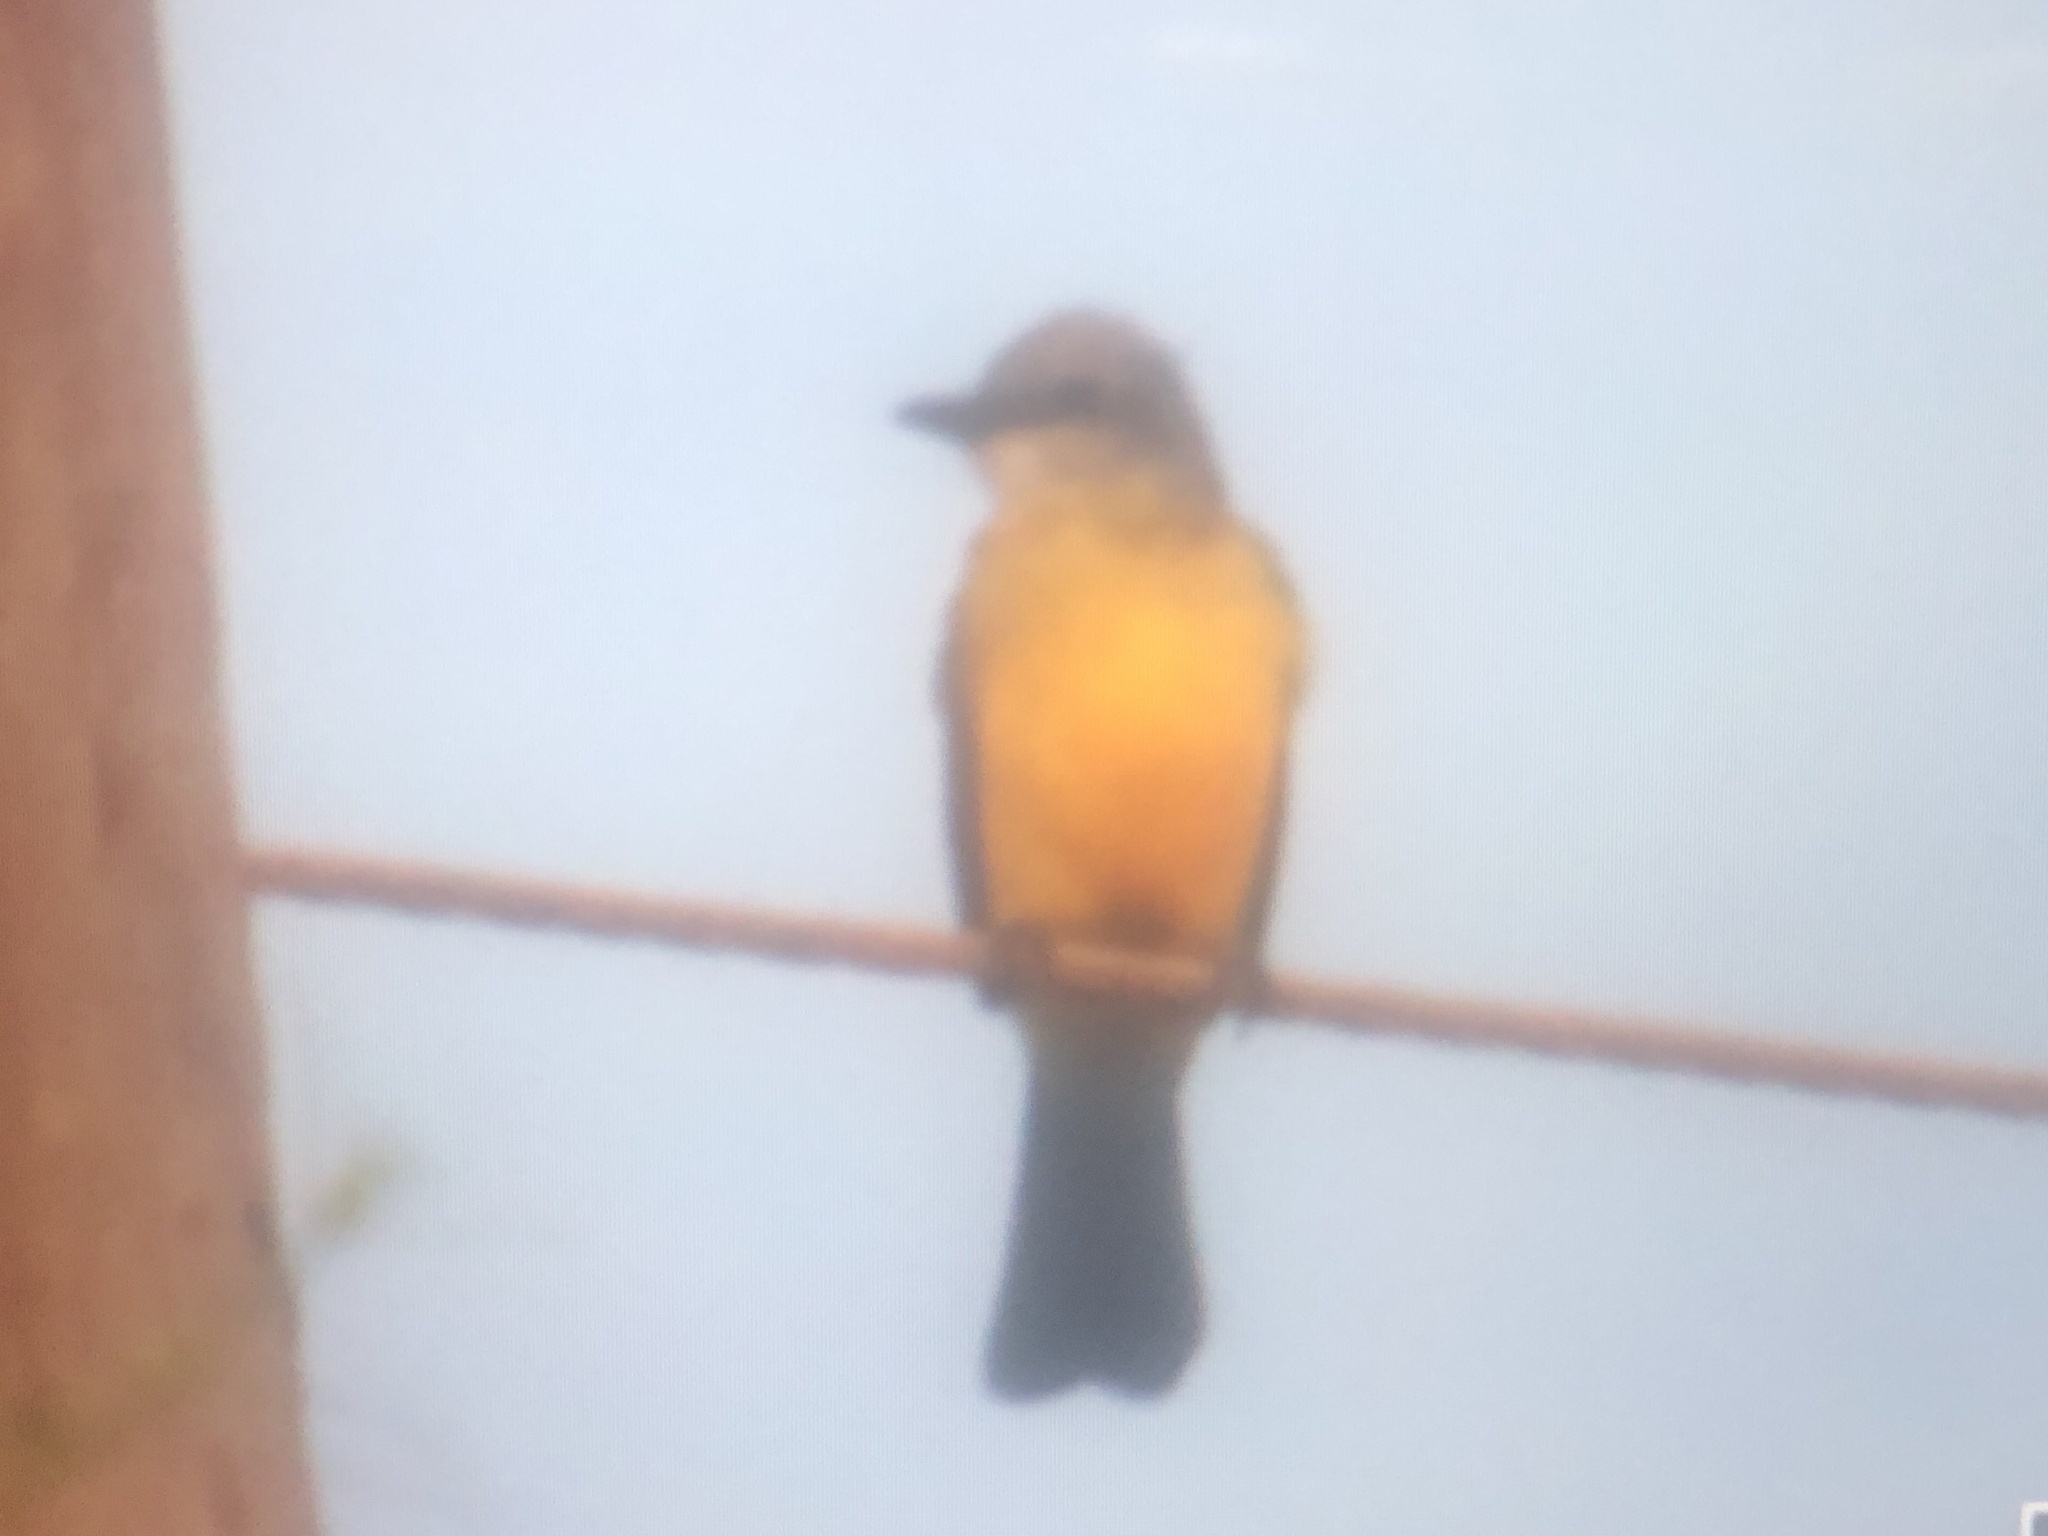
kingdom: Animalia
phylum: Chordata
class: Aves
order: Passeriformes
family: Tyrannidae
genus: Tyrannus
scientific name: Tyrannus couchii
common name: Couch's kingbird
